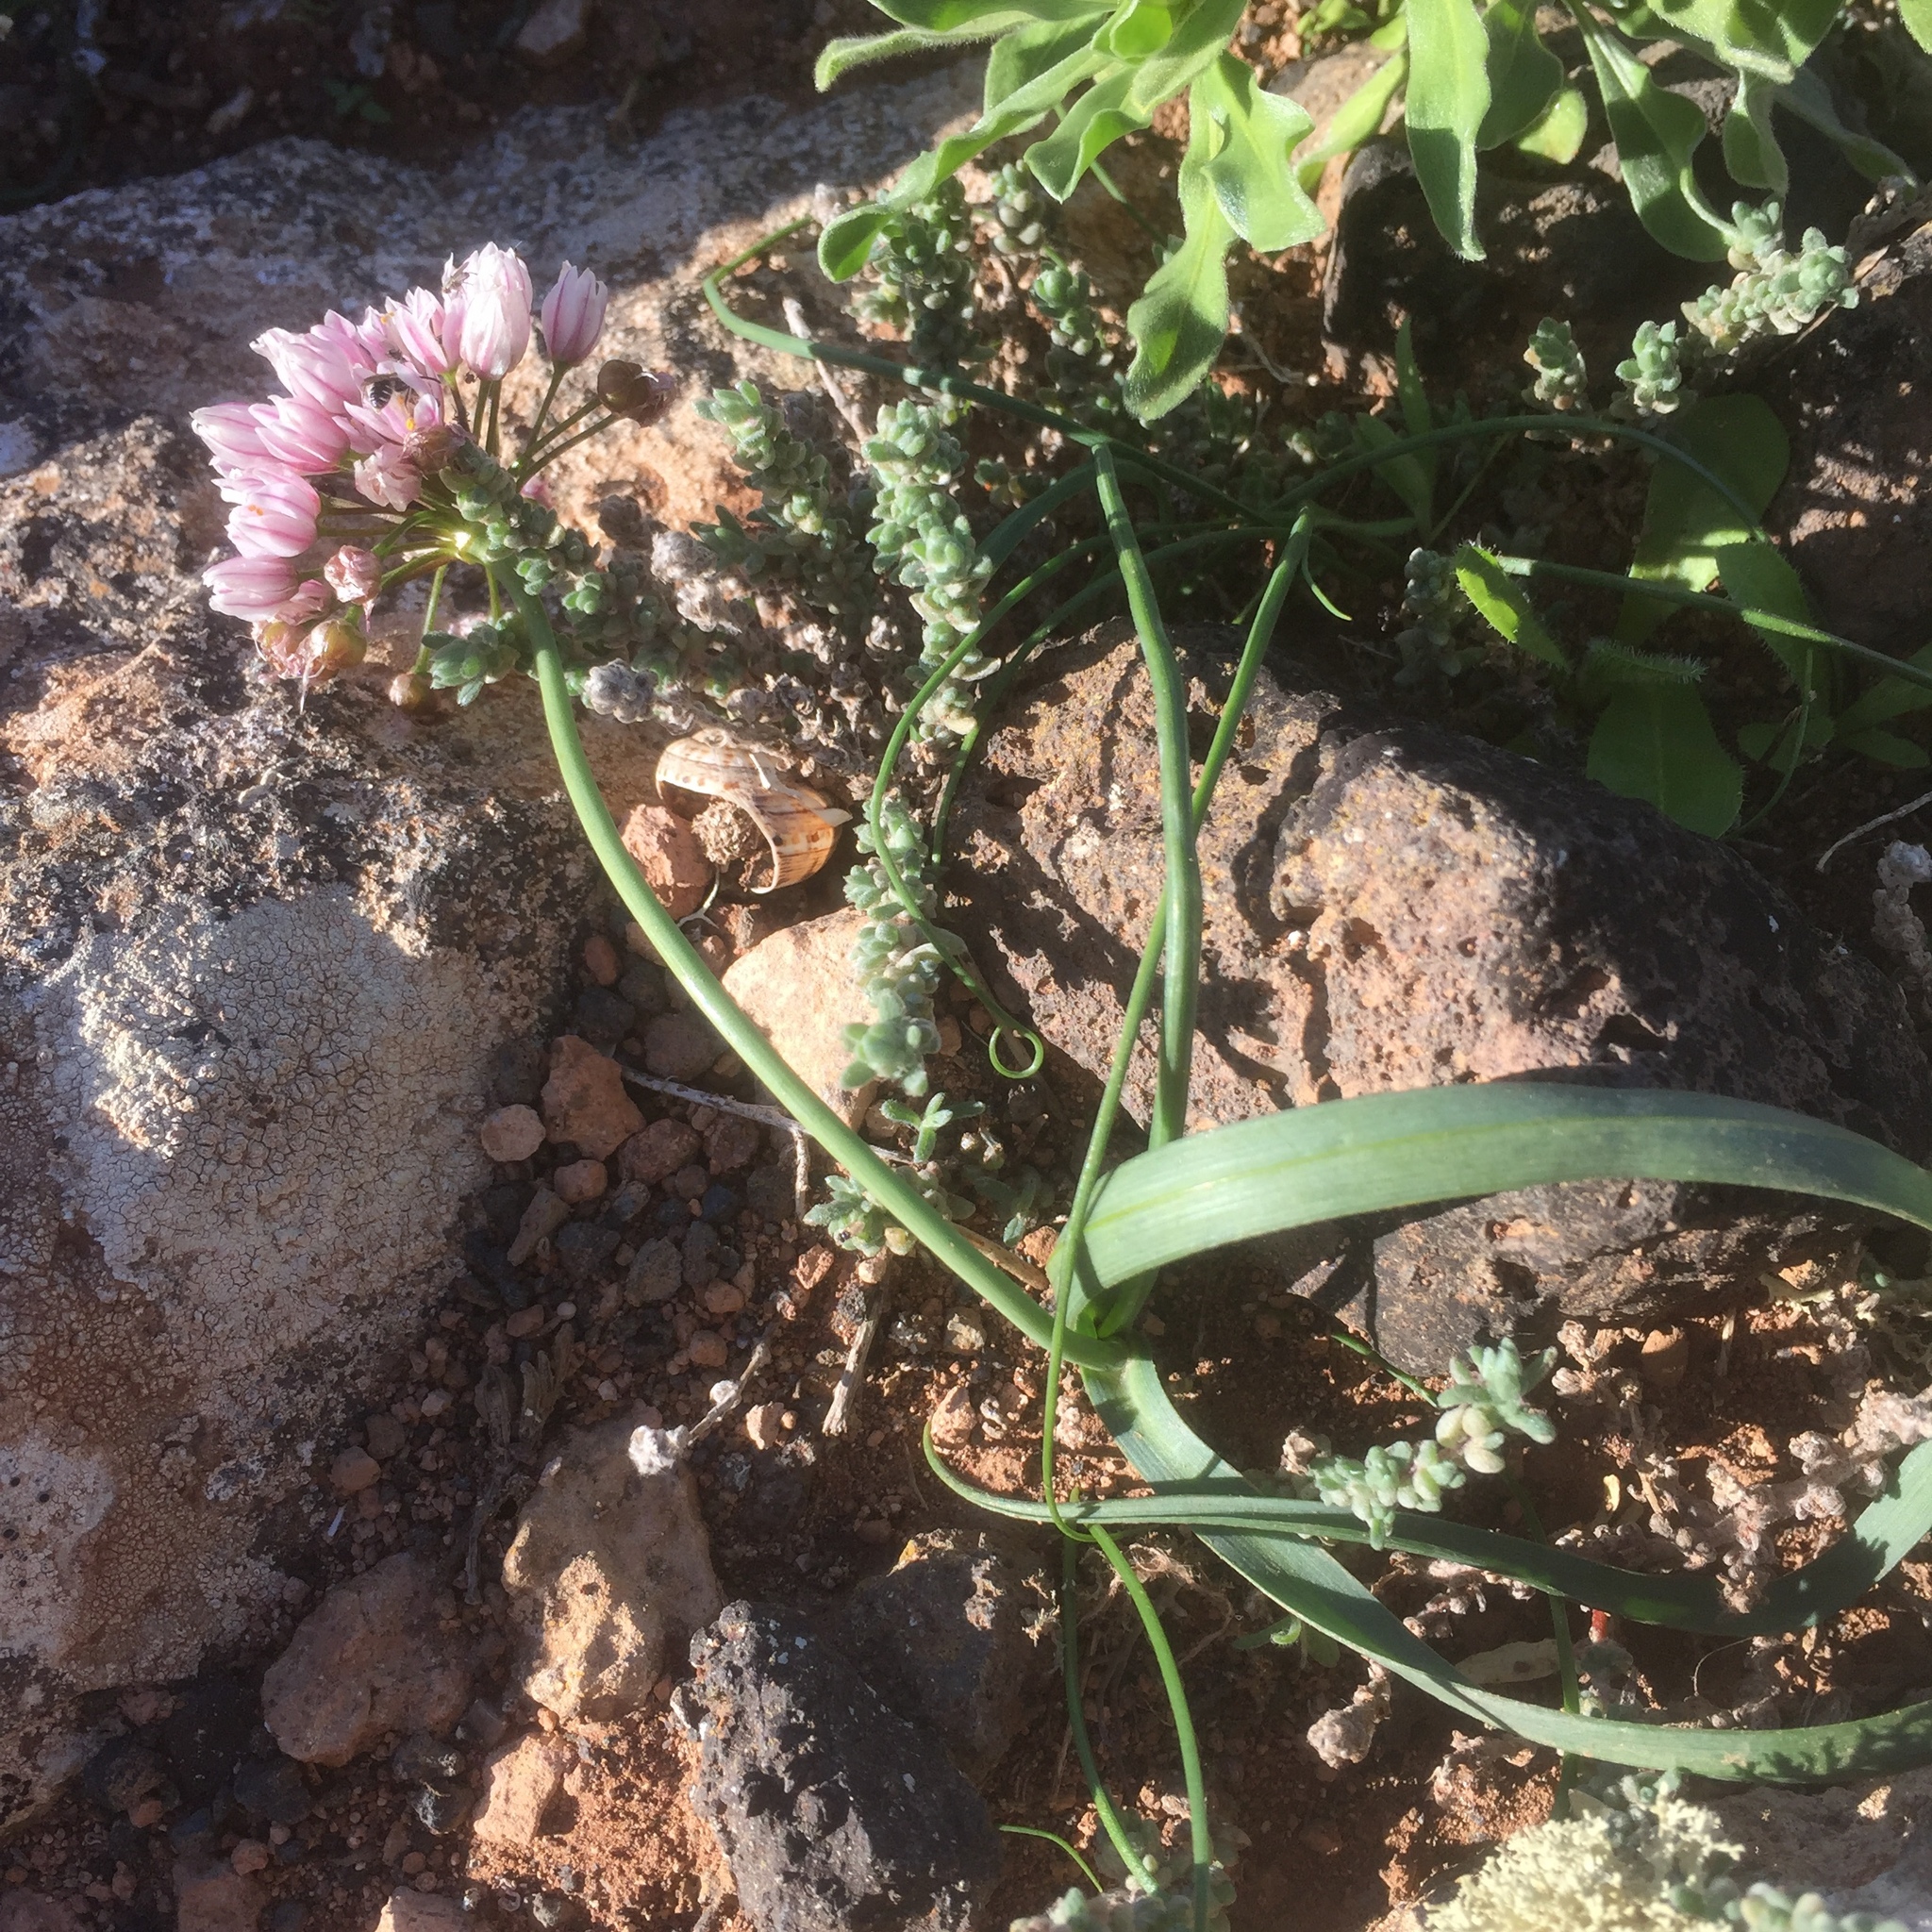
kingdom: Plantae
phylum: Tracheophyta
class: Liliopsida
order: Asparagales
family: Amaryllidaceae
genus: Allium
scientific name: Allium canariense
